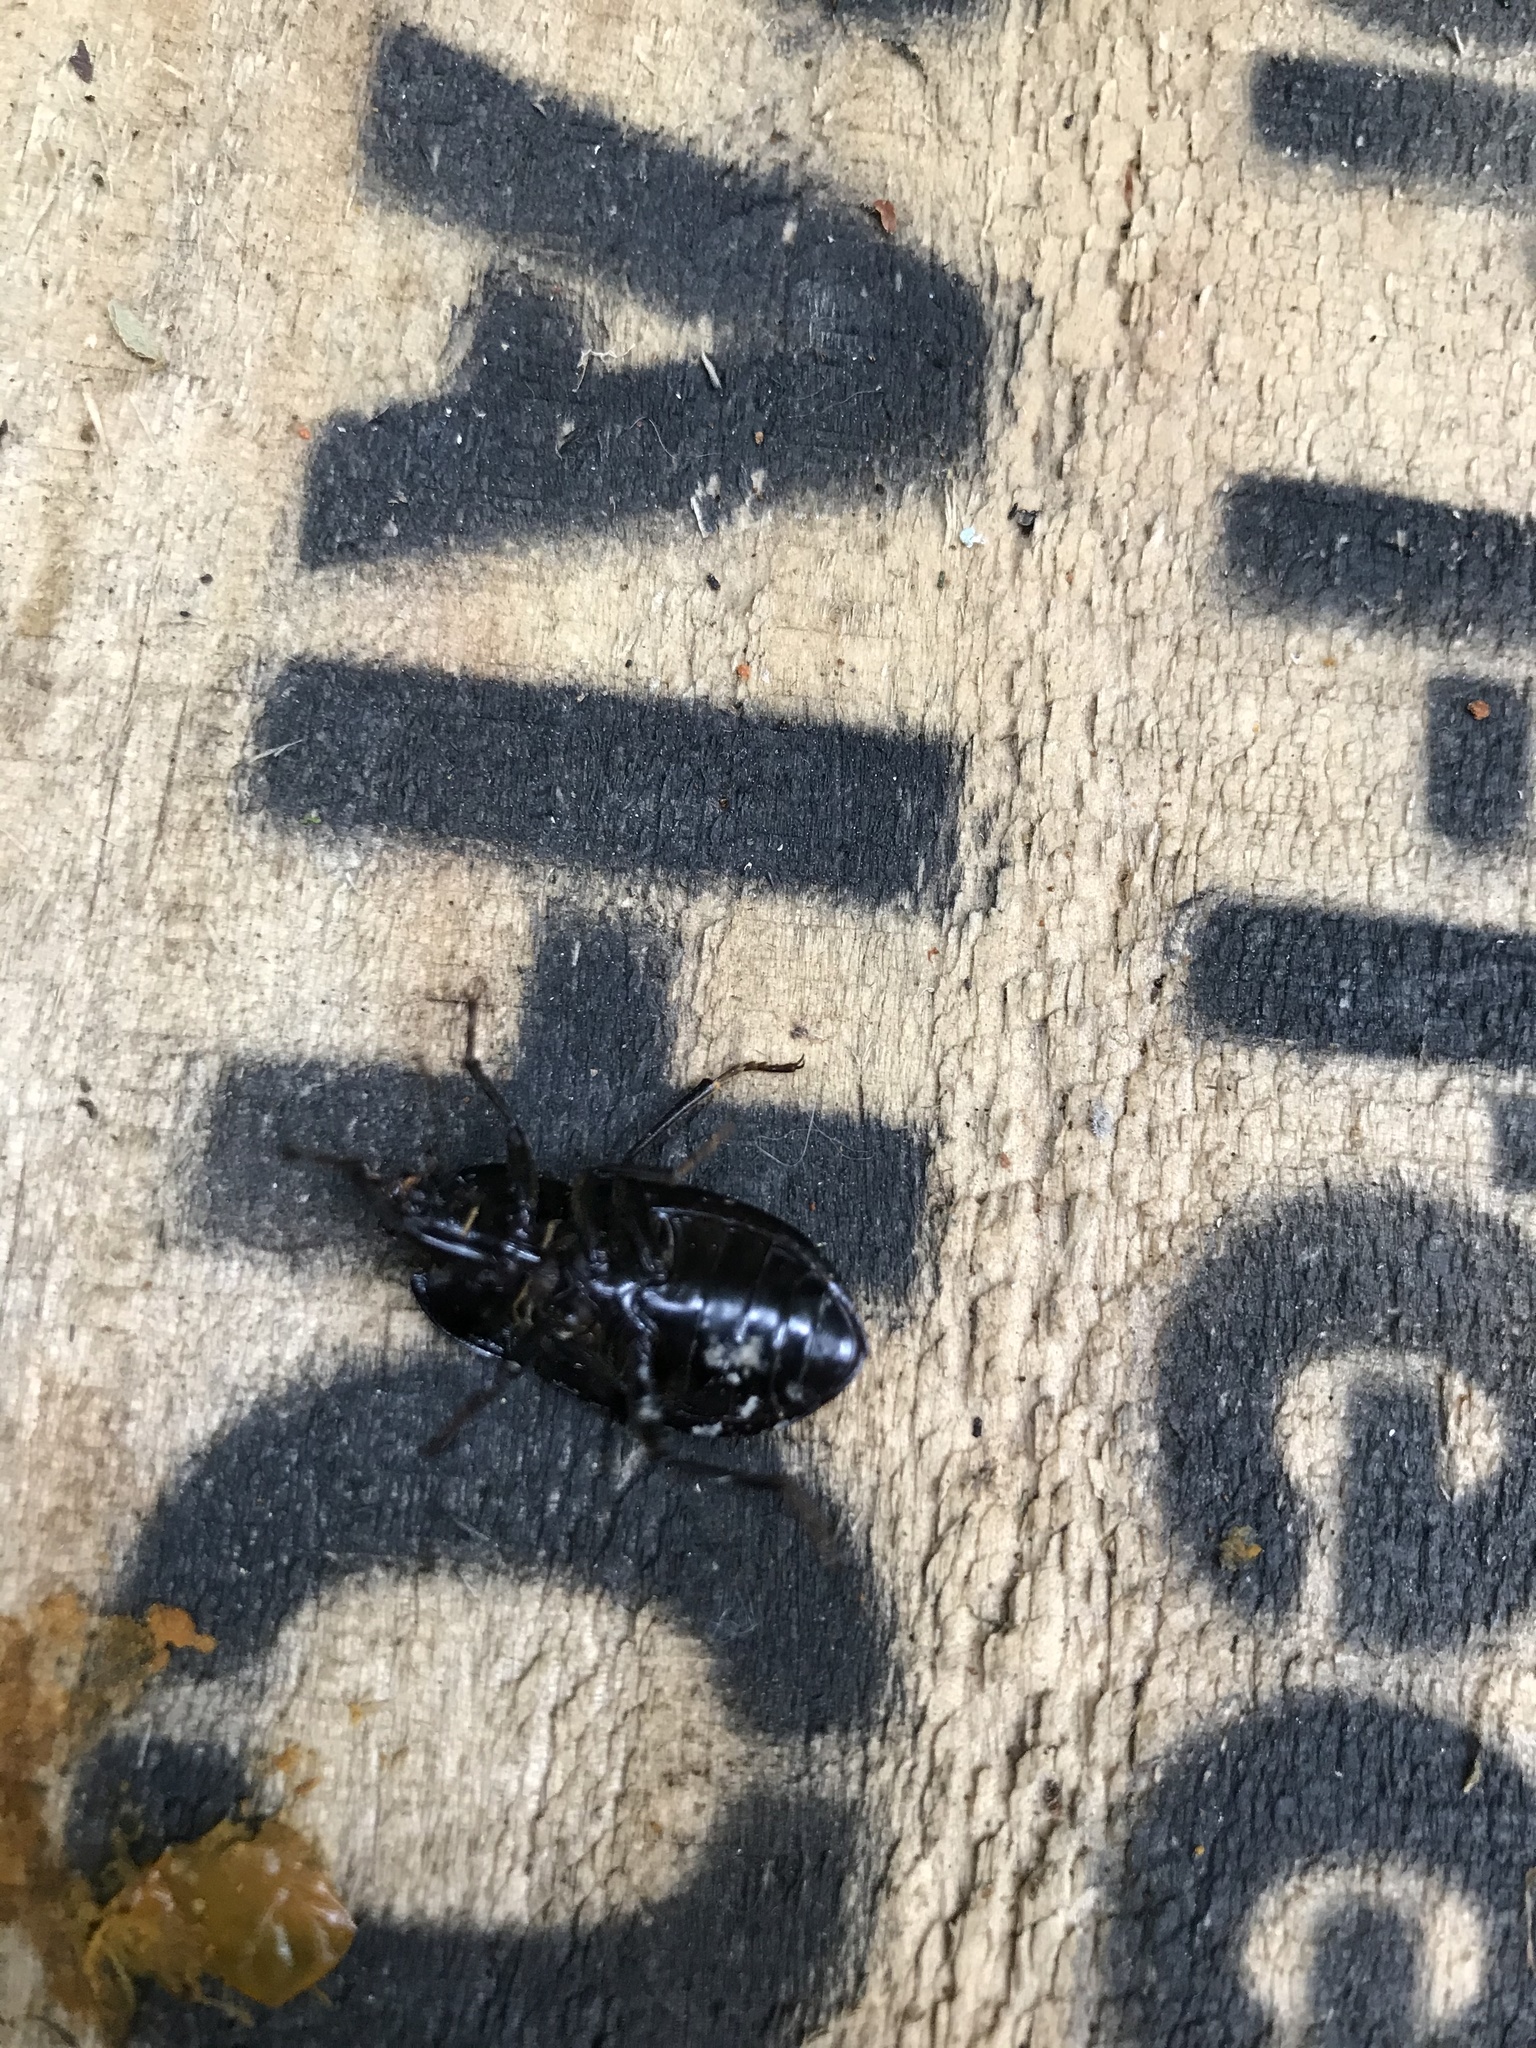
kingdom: Animalia
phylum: Arthropoda
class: Insecta
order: Coleoptera
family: Tenebrionidae
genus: Mimopeus
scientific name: Mimopeus
